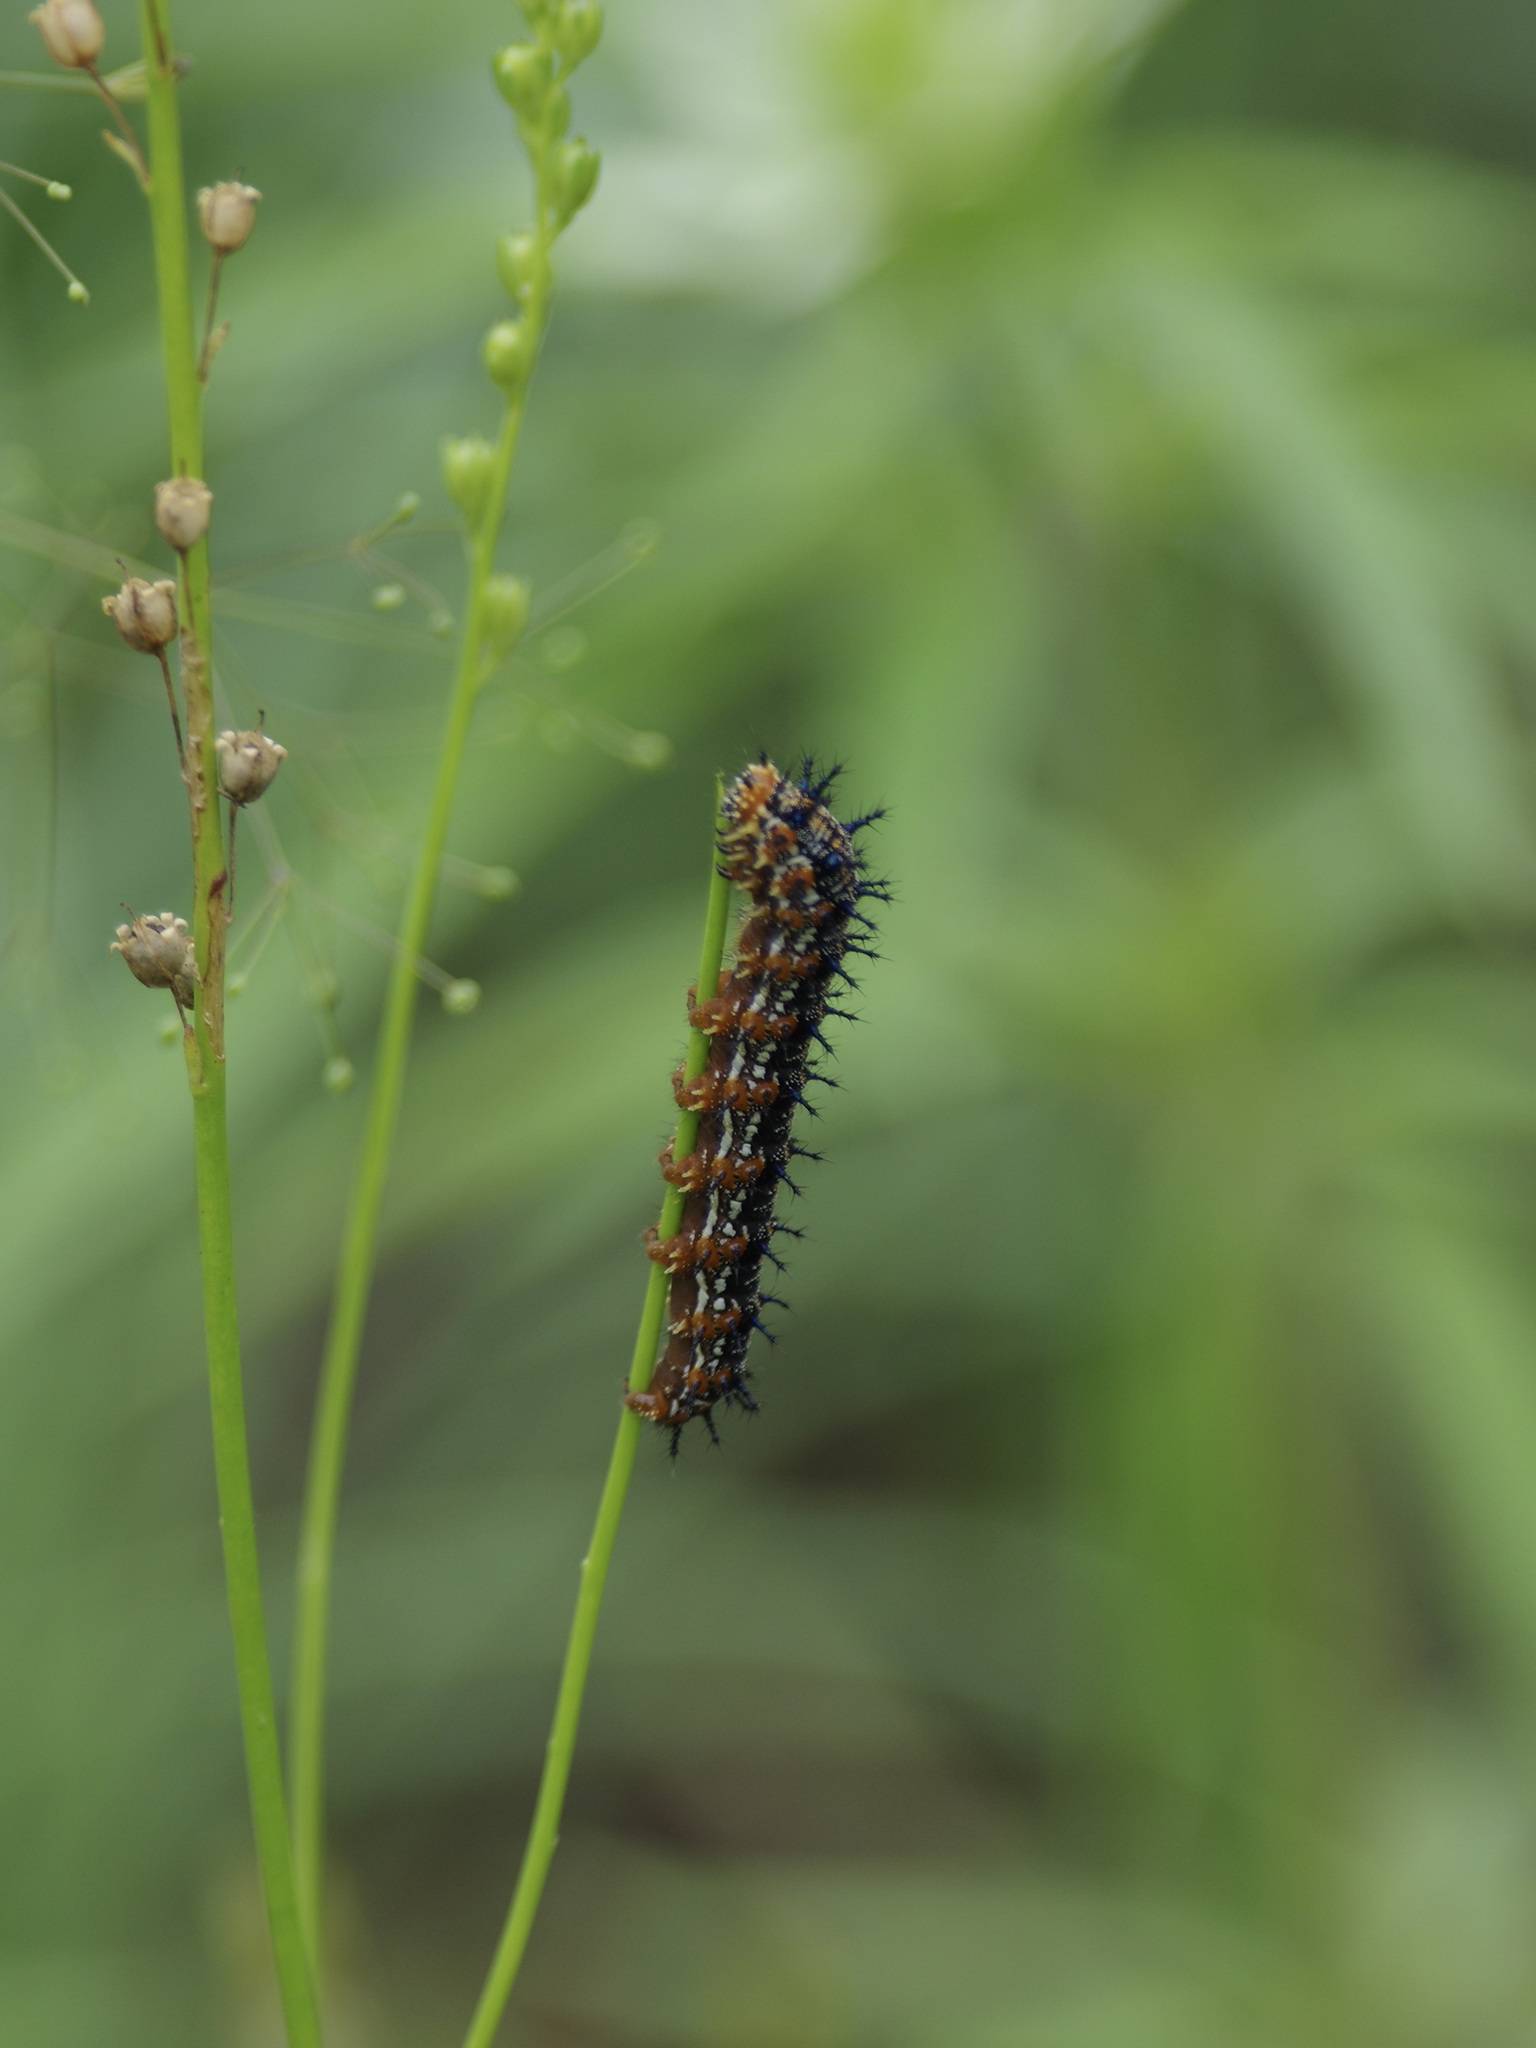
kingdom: Animalia
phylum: Arthropoda
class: Insecta
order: Lepidoptera
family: Nymphalidae
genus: Junonia
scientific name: Junonia coenia
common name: Common buckeye
